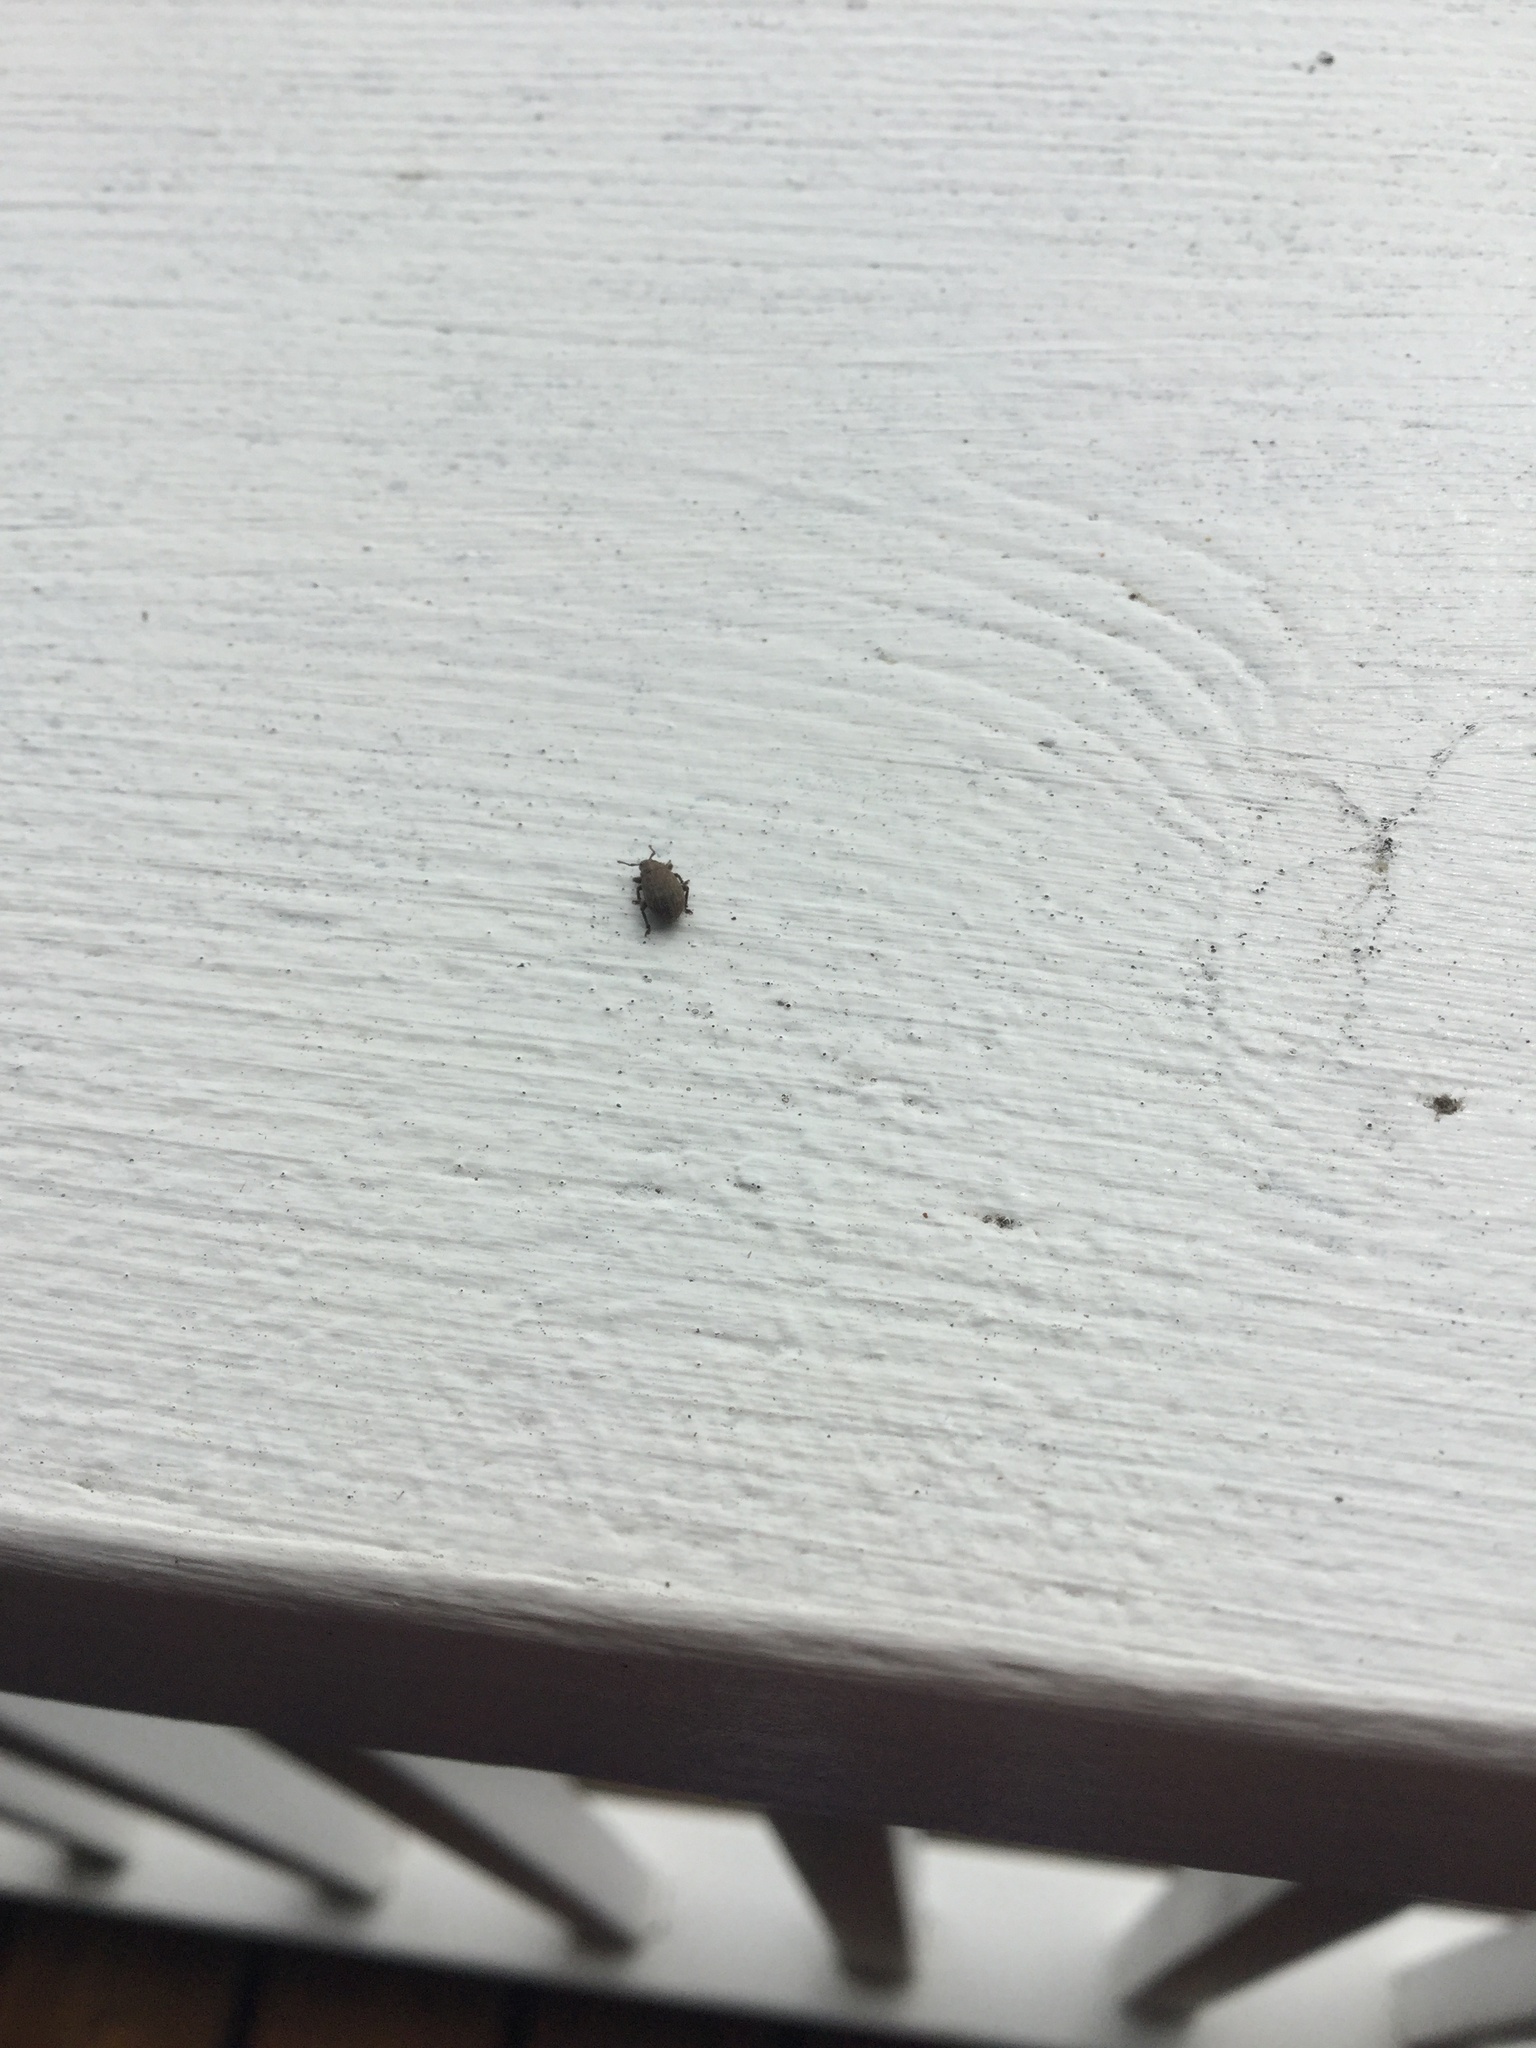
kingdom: Animalia
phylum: Arthropoda
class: Insecta
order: Coleoptera
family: Curculionidae
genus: Romualdius
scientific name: Romualdius scaber
